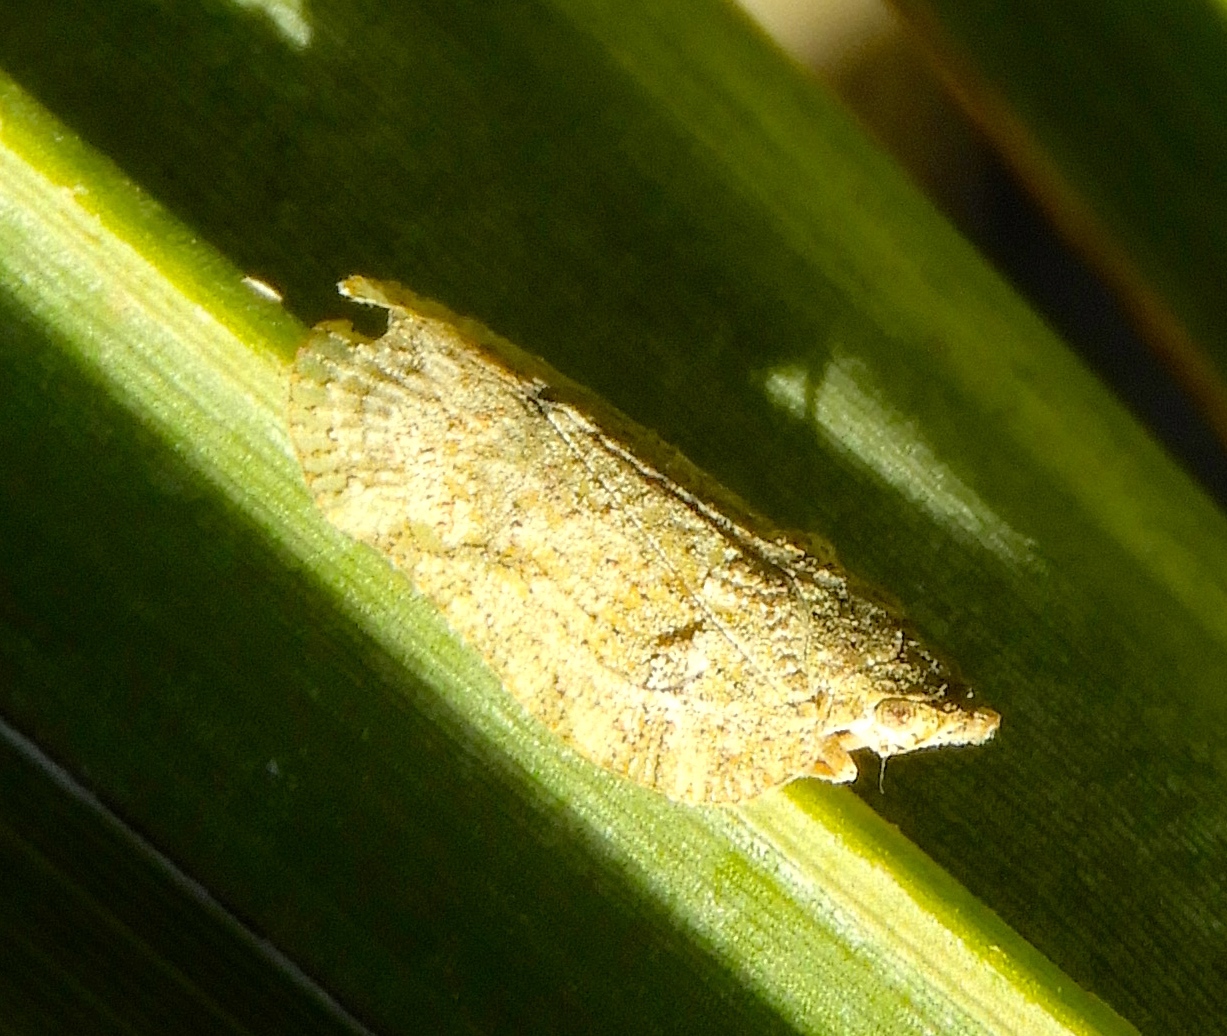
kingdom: Animalia
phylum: Arthropoda
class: Insecta
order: Hemiptera
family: Flatidae
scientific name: Flatidae
